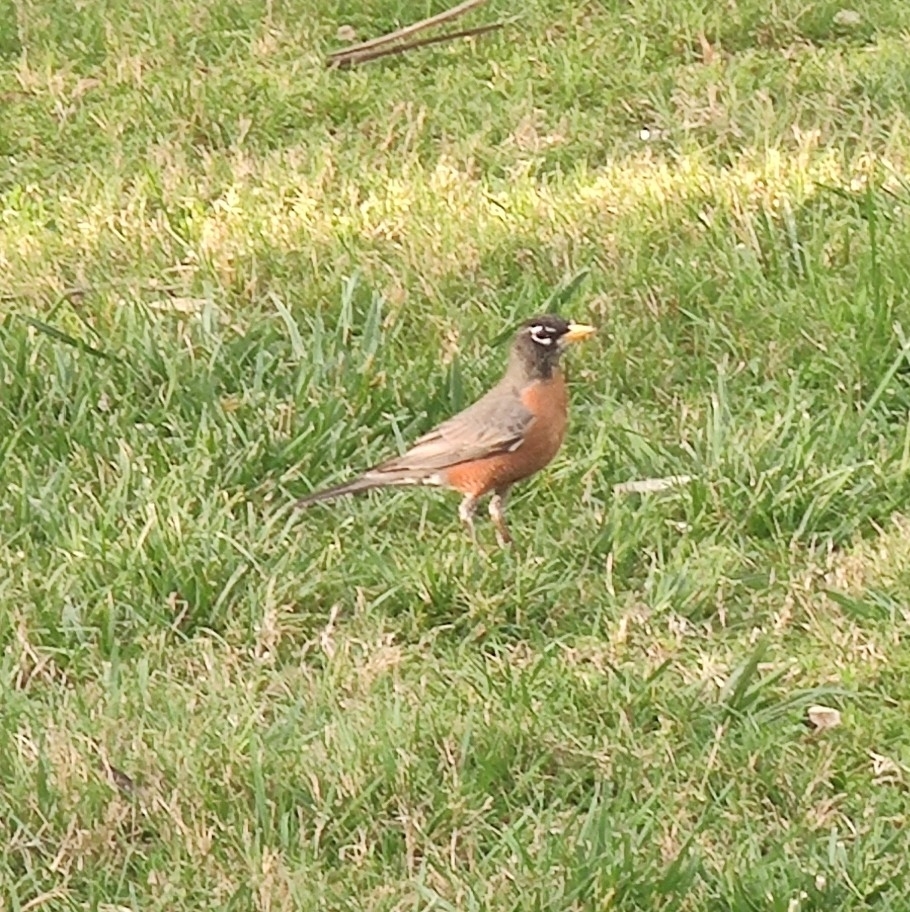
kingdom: Animalia
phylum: Chordata
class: Aves
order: Passeriformes
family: Turdidae
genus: Turdus
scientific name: Turdus migratorius
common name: American robin
